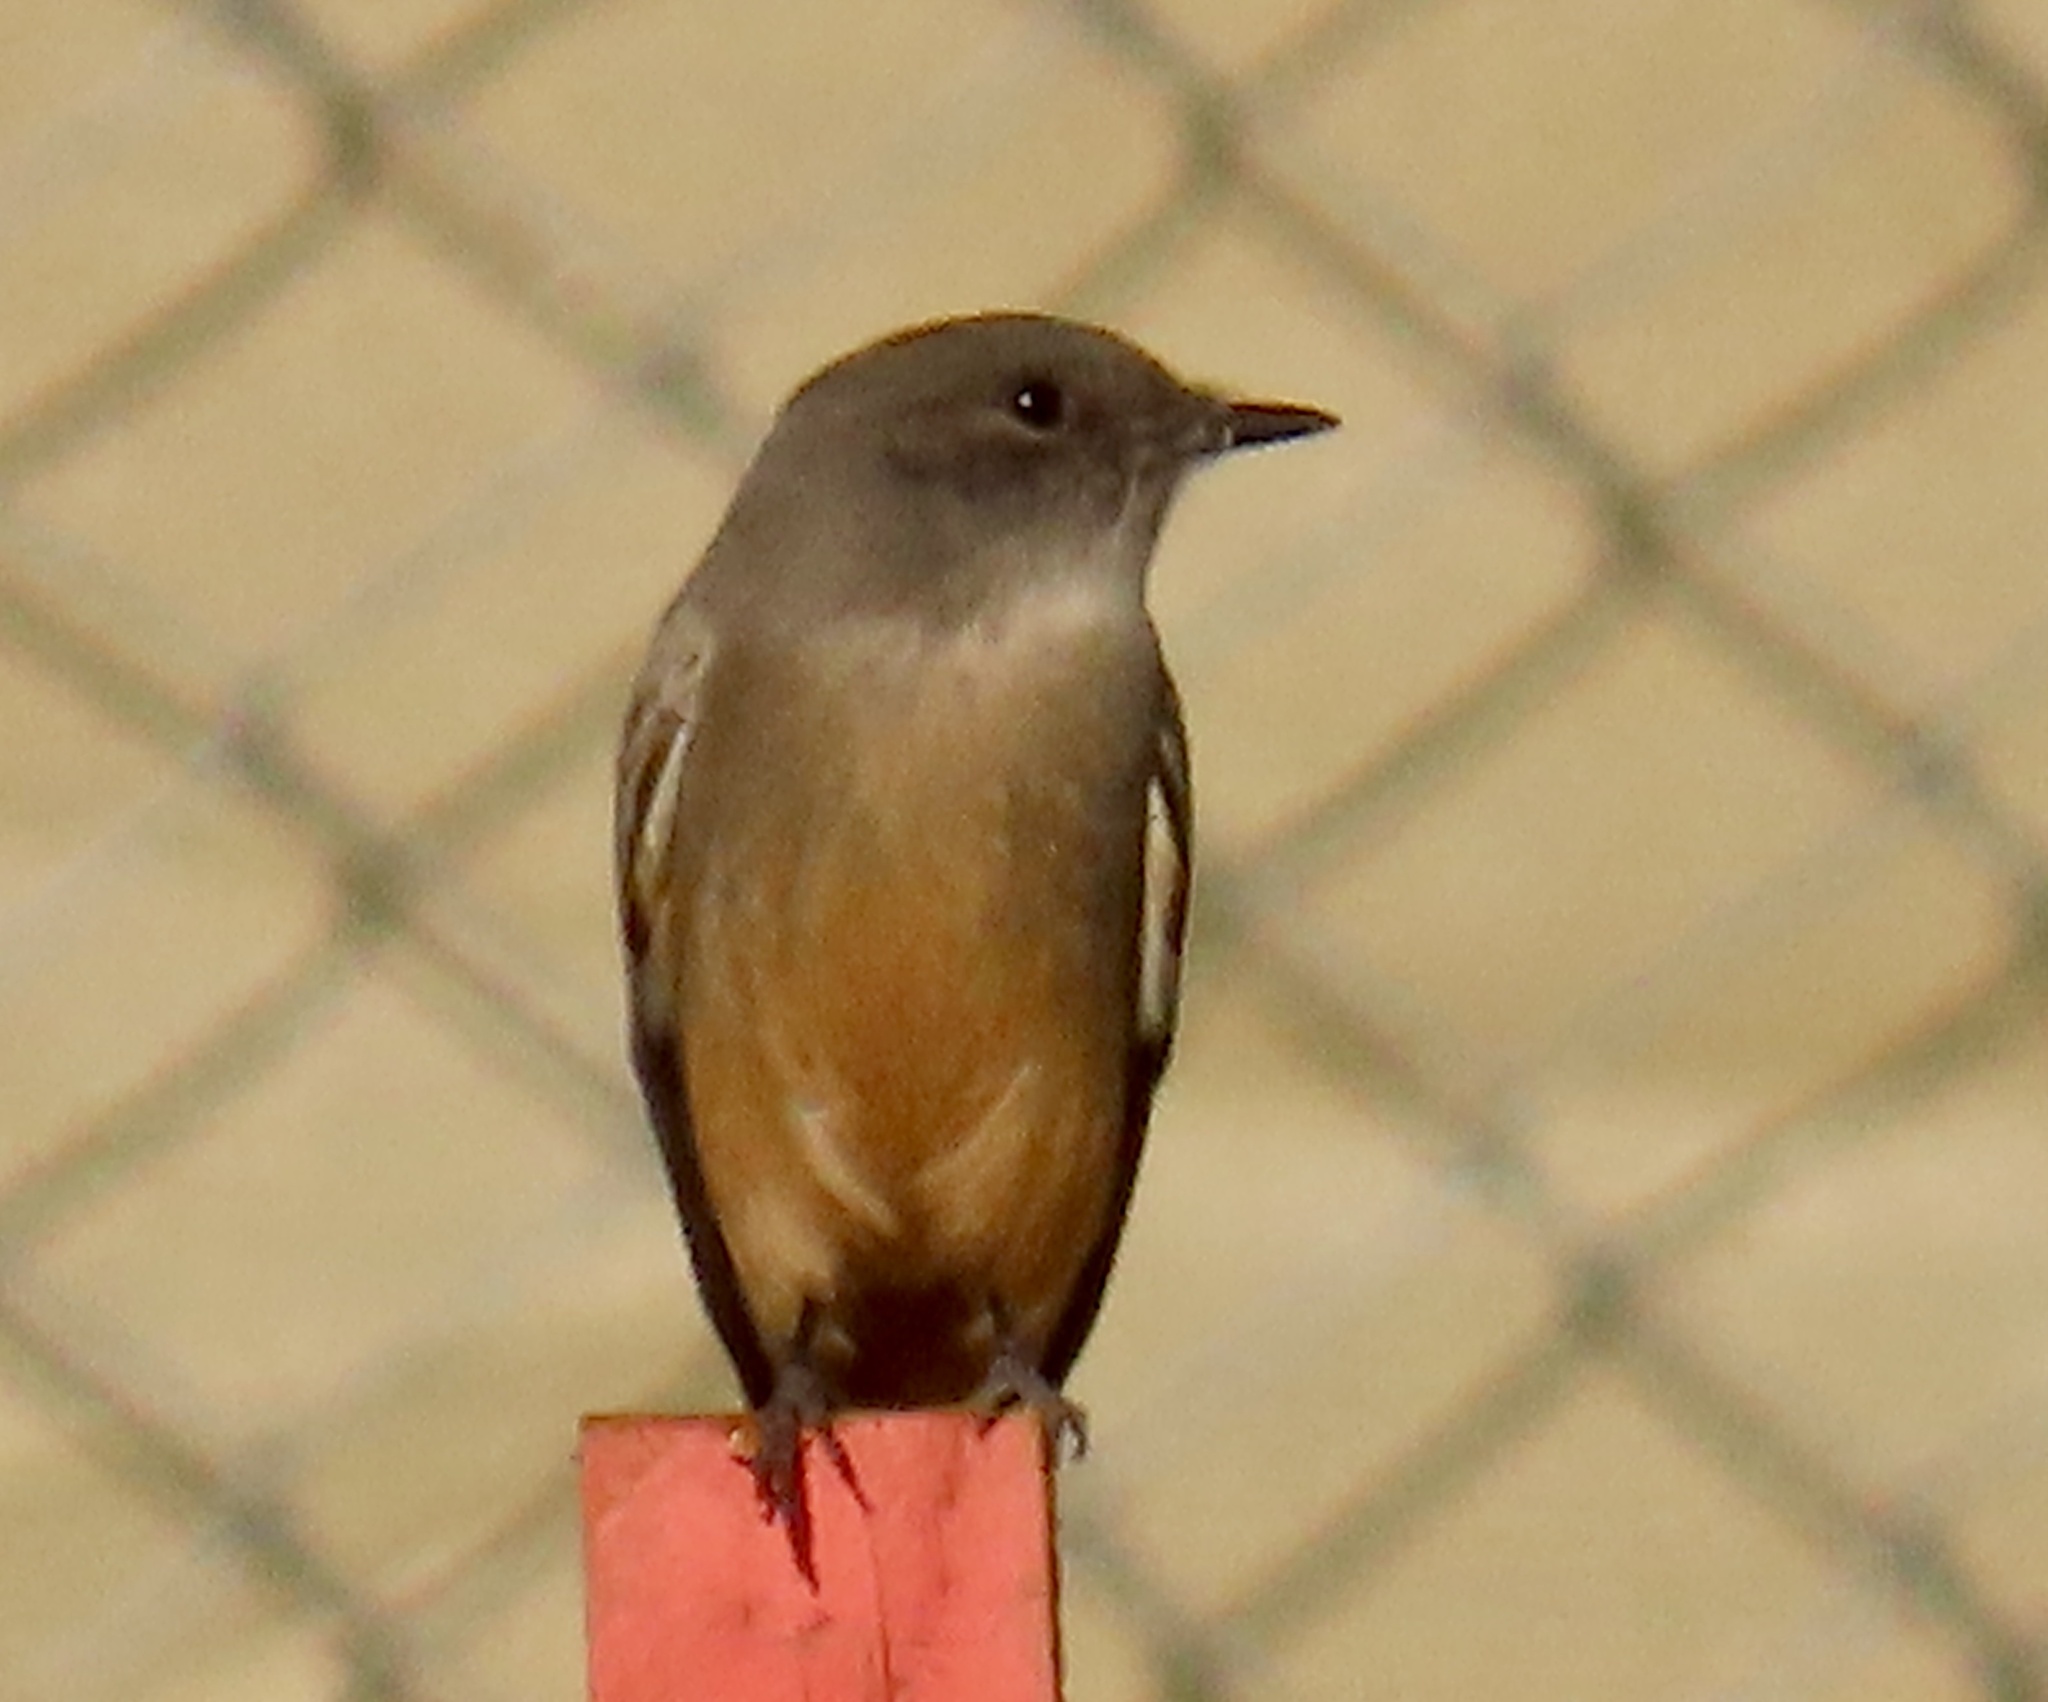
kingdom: Animalia
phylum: Chordata
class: Aves
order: Passeriformes
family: Tyrannidae
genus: Sayornis
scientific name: Sayornis saya
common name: Say's phoebe
